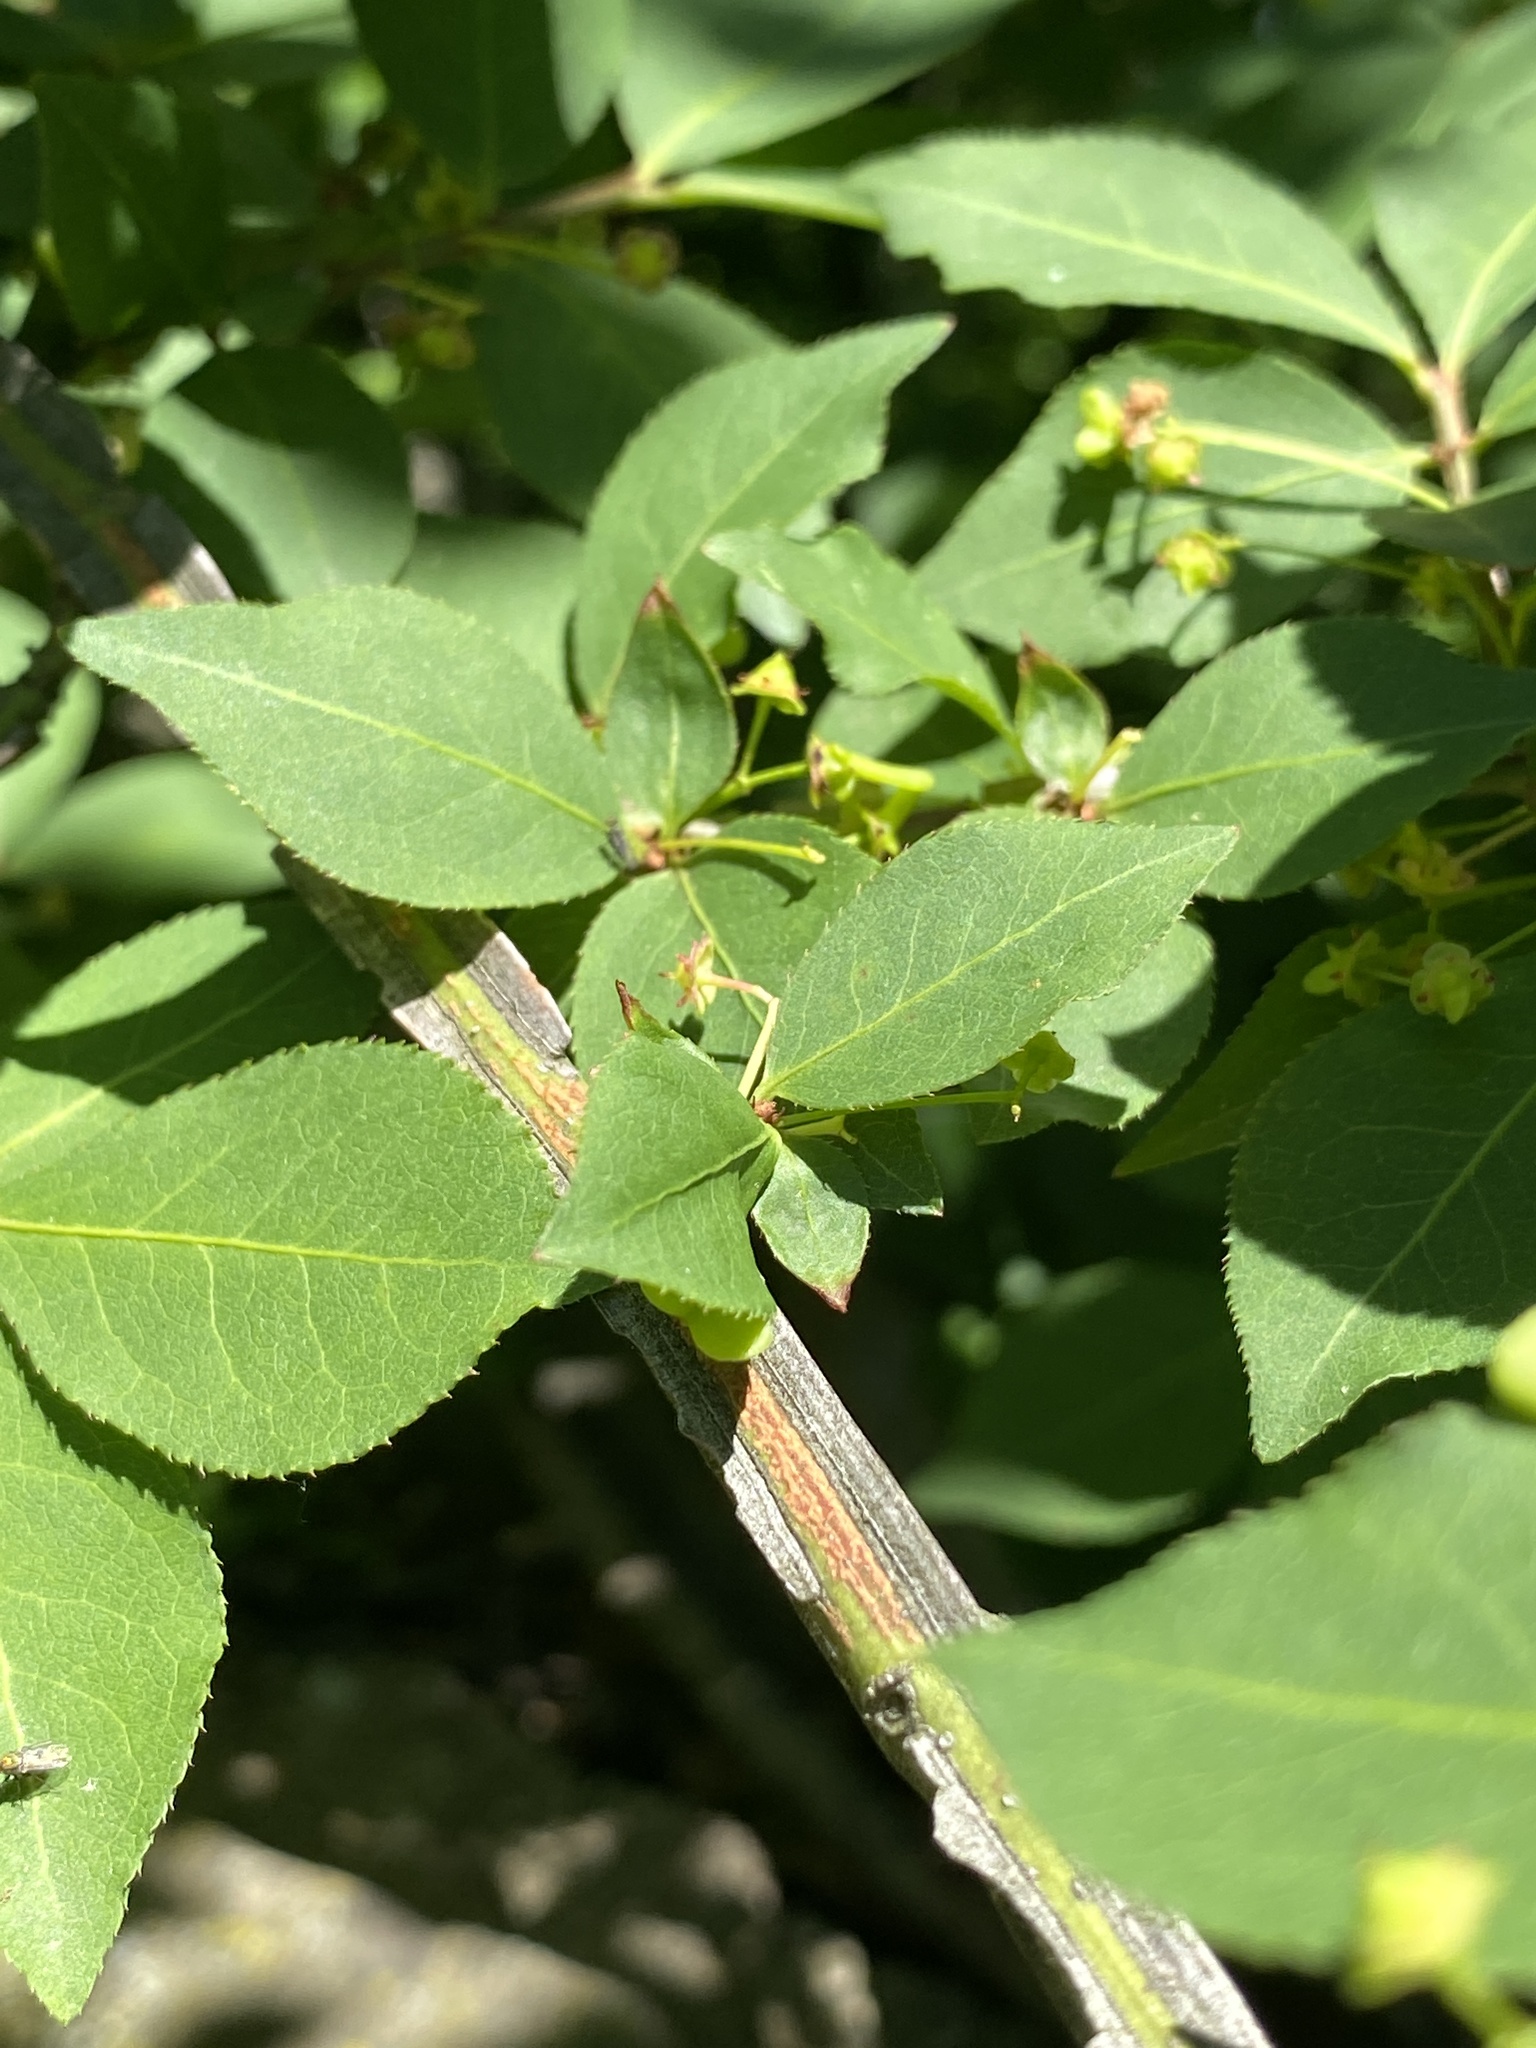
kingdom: Plantae
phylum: Tracheophyta
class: Magnoliopsida
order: Celastrales
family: Celastraceae
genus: Euonymus
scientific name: Euonymus alatus
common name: Winged euonymus
